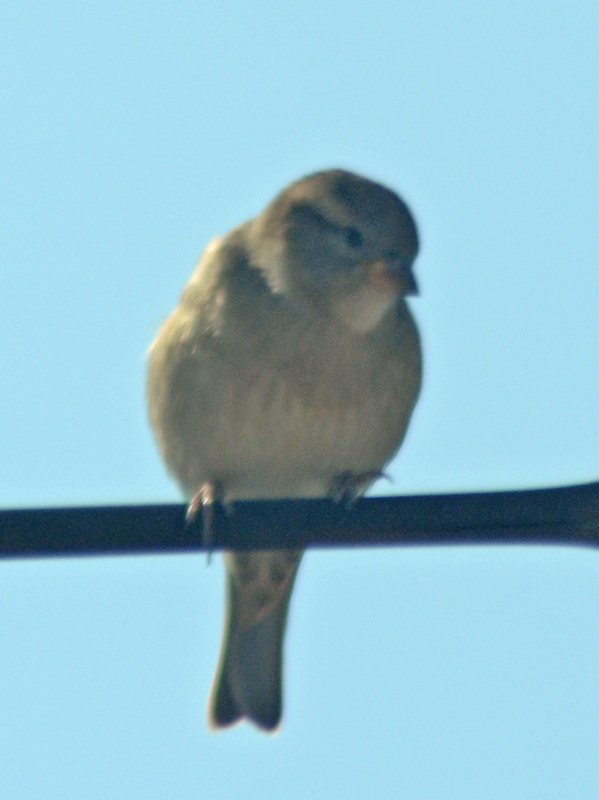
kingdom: Animalia
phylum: Chordata
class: Aves
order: Passeriformes
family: Passeridae
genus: Passer
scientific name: Passer domesticus
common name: House sparrow
